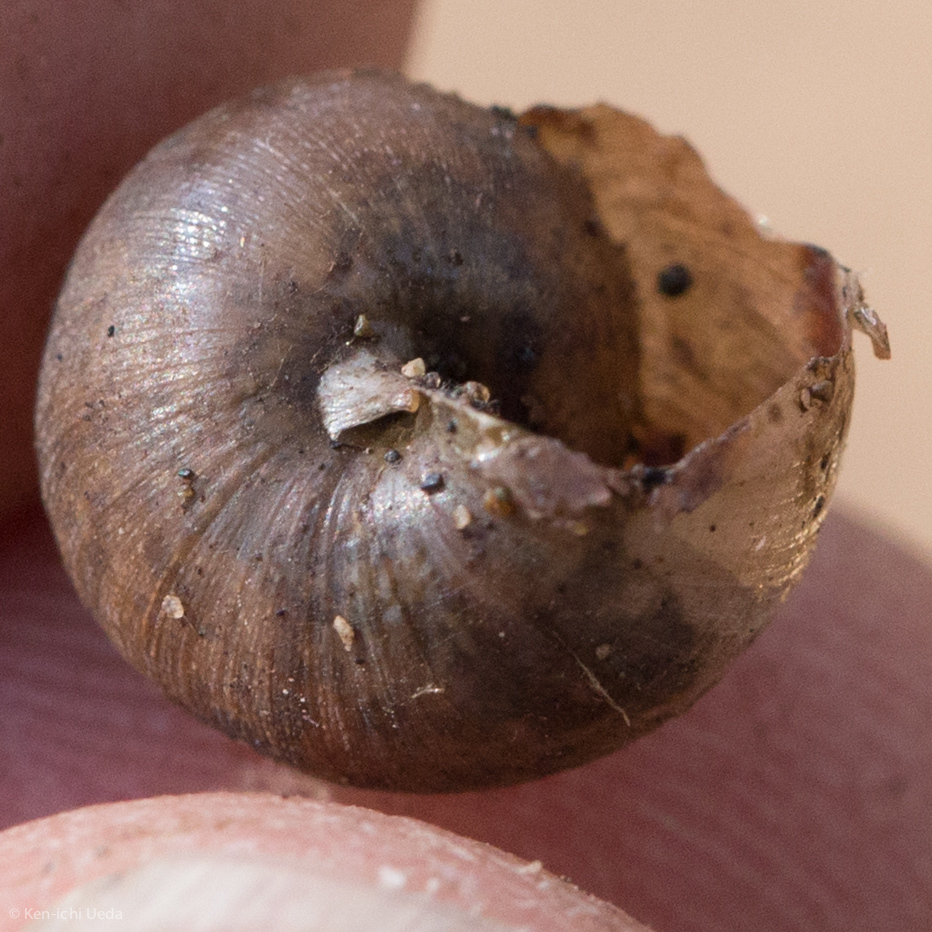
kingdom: Animalia
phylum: Mollusca
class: Gastropoda
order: Stylommatophora
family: Xanthonychidae
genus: Helminthoglypta
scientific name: Helminthoglypta nickliniana
